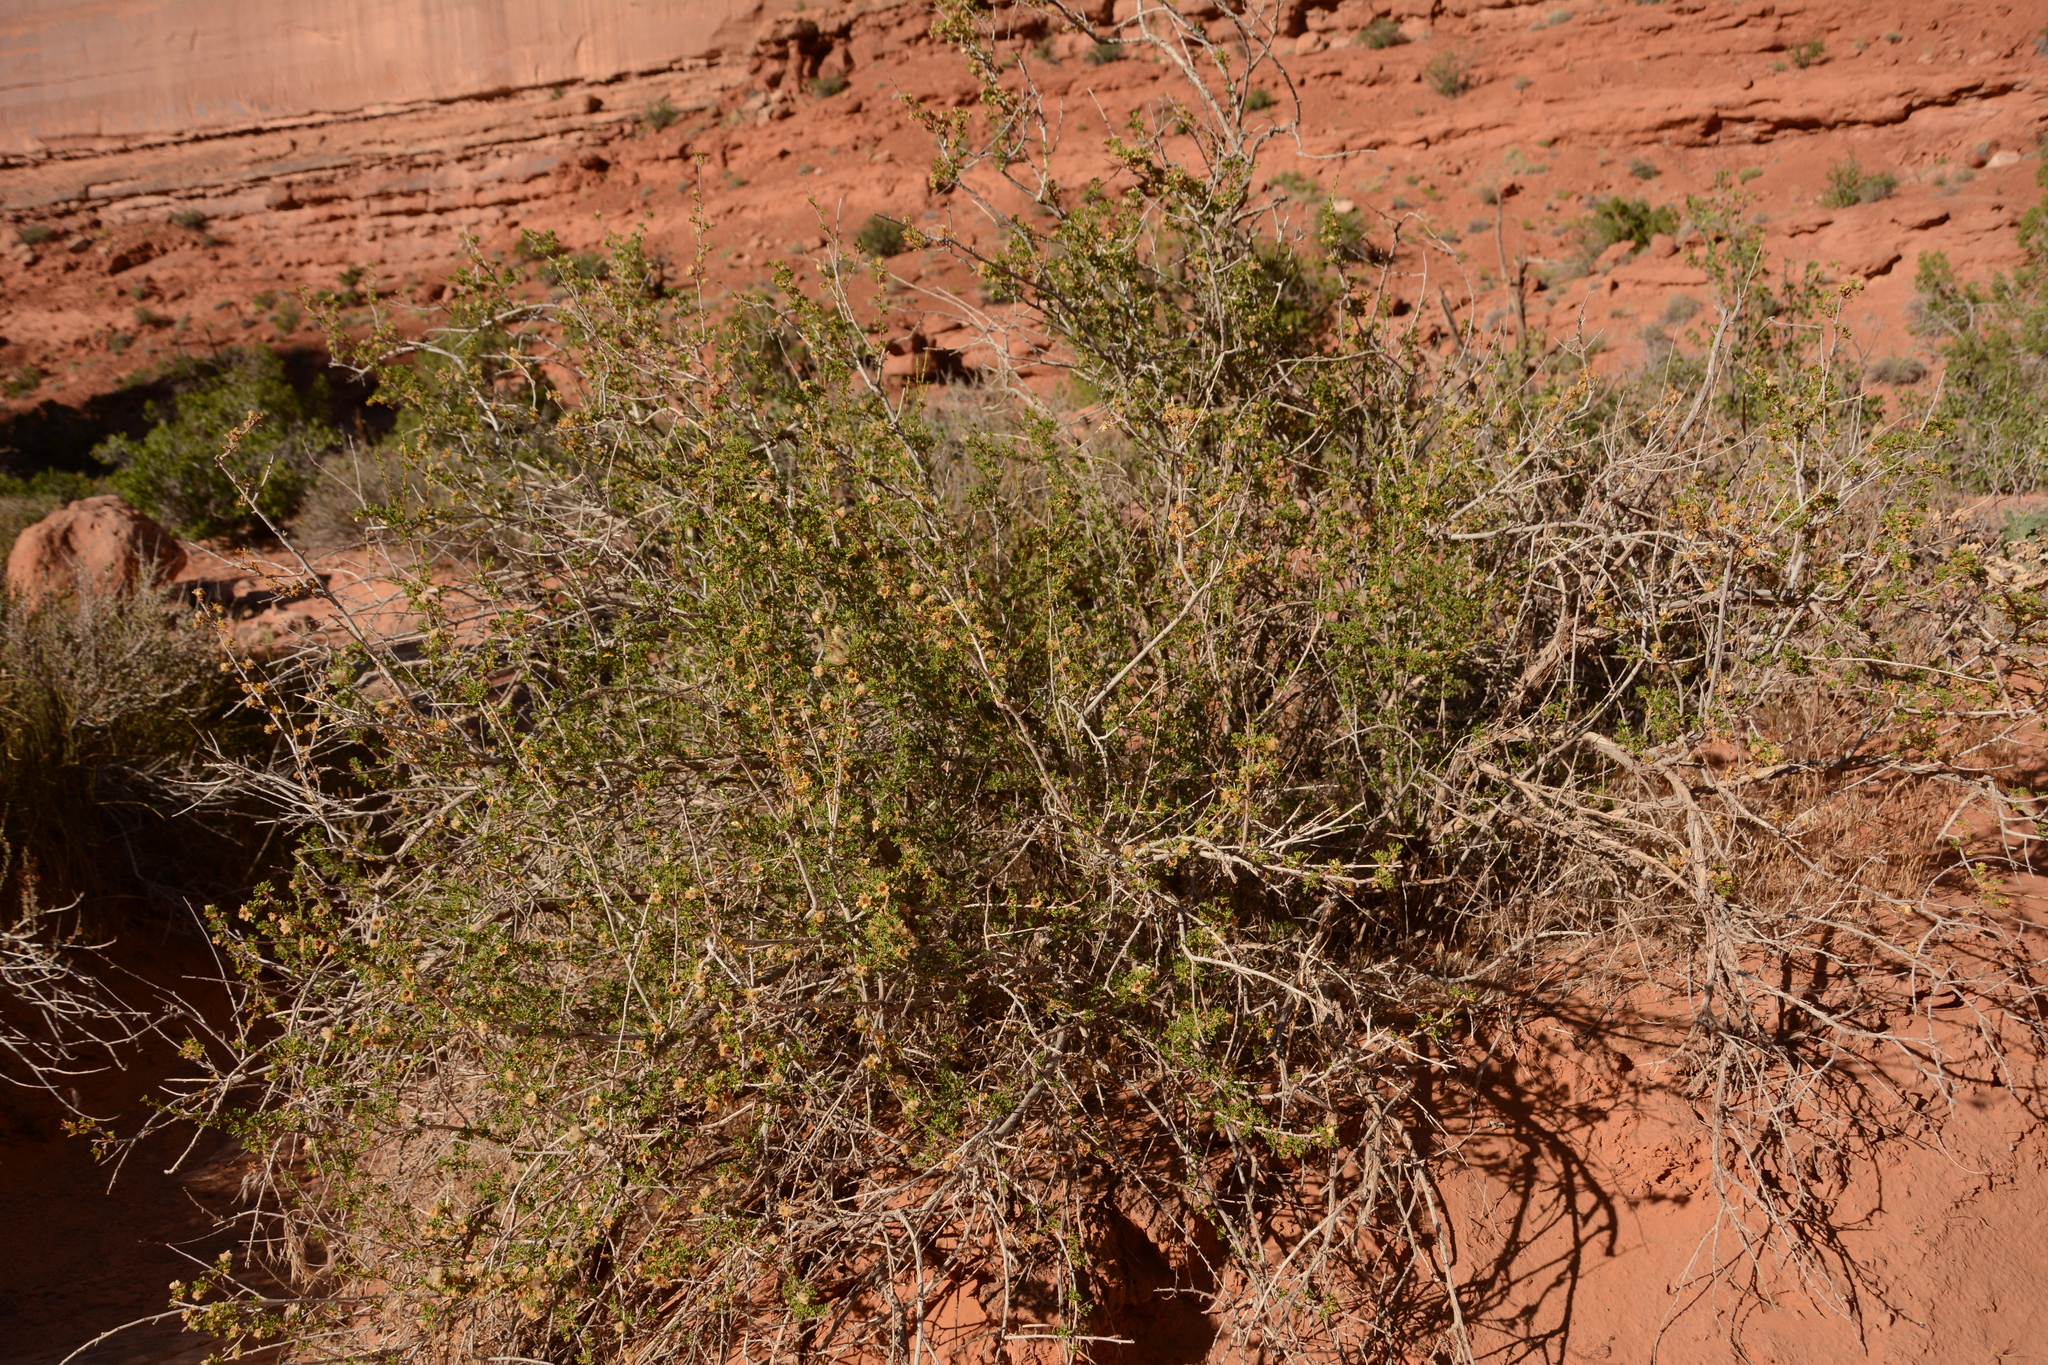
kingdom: Plantae
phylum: Tracheophyta
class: Magnoliopsida
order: Rosales
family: Rosaceae
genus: Purshia
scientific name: Purshia stansburiana
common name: Stansbury's cliffrose
